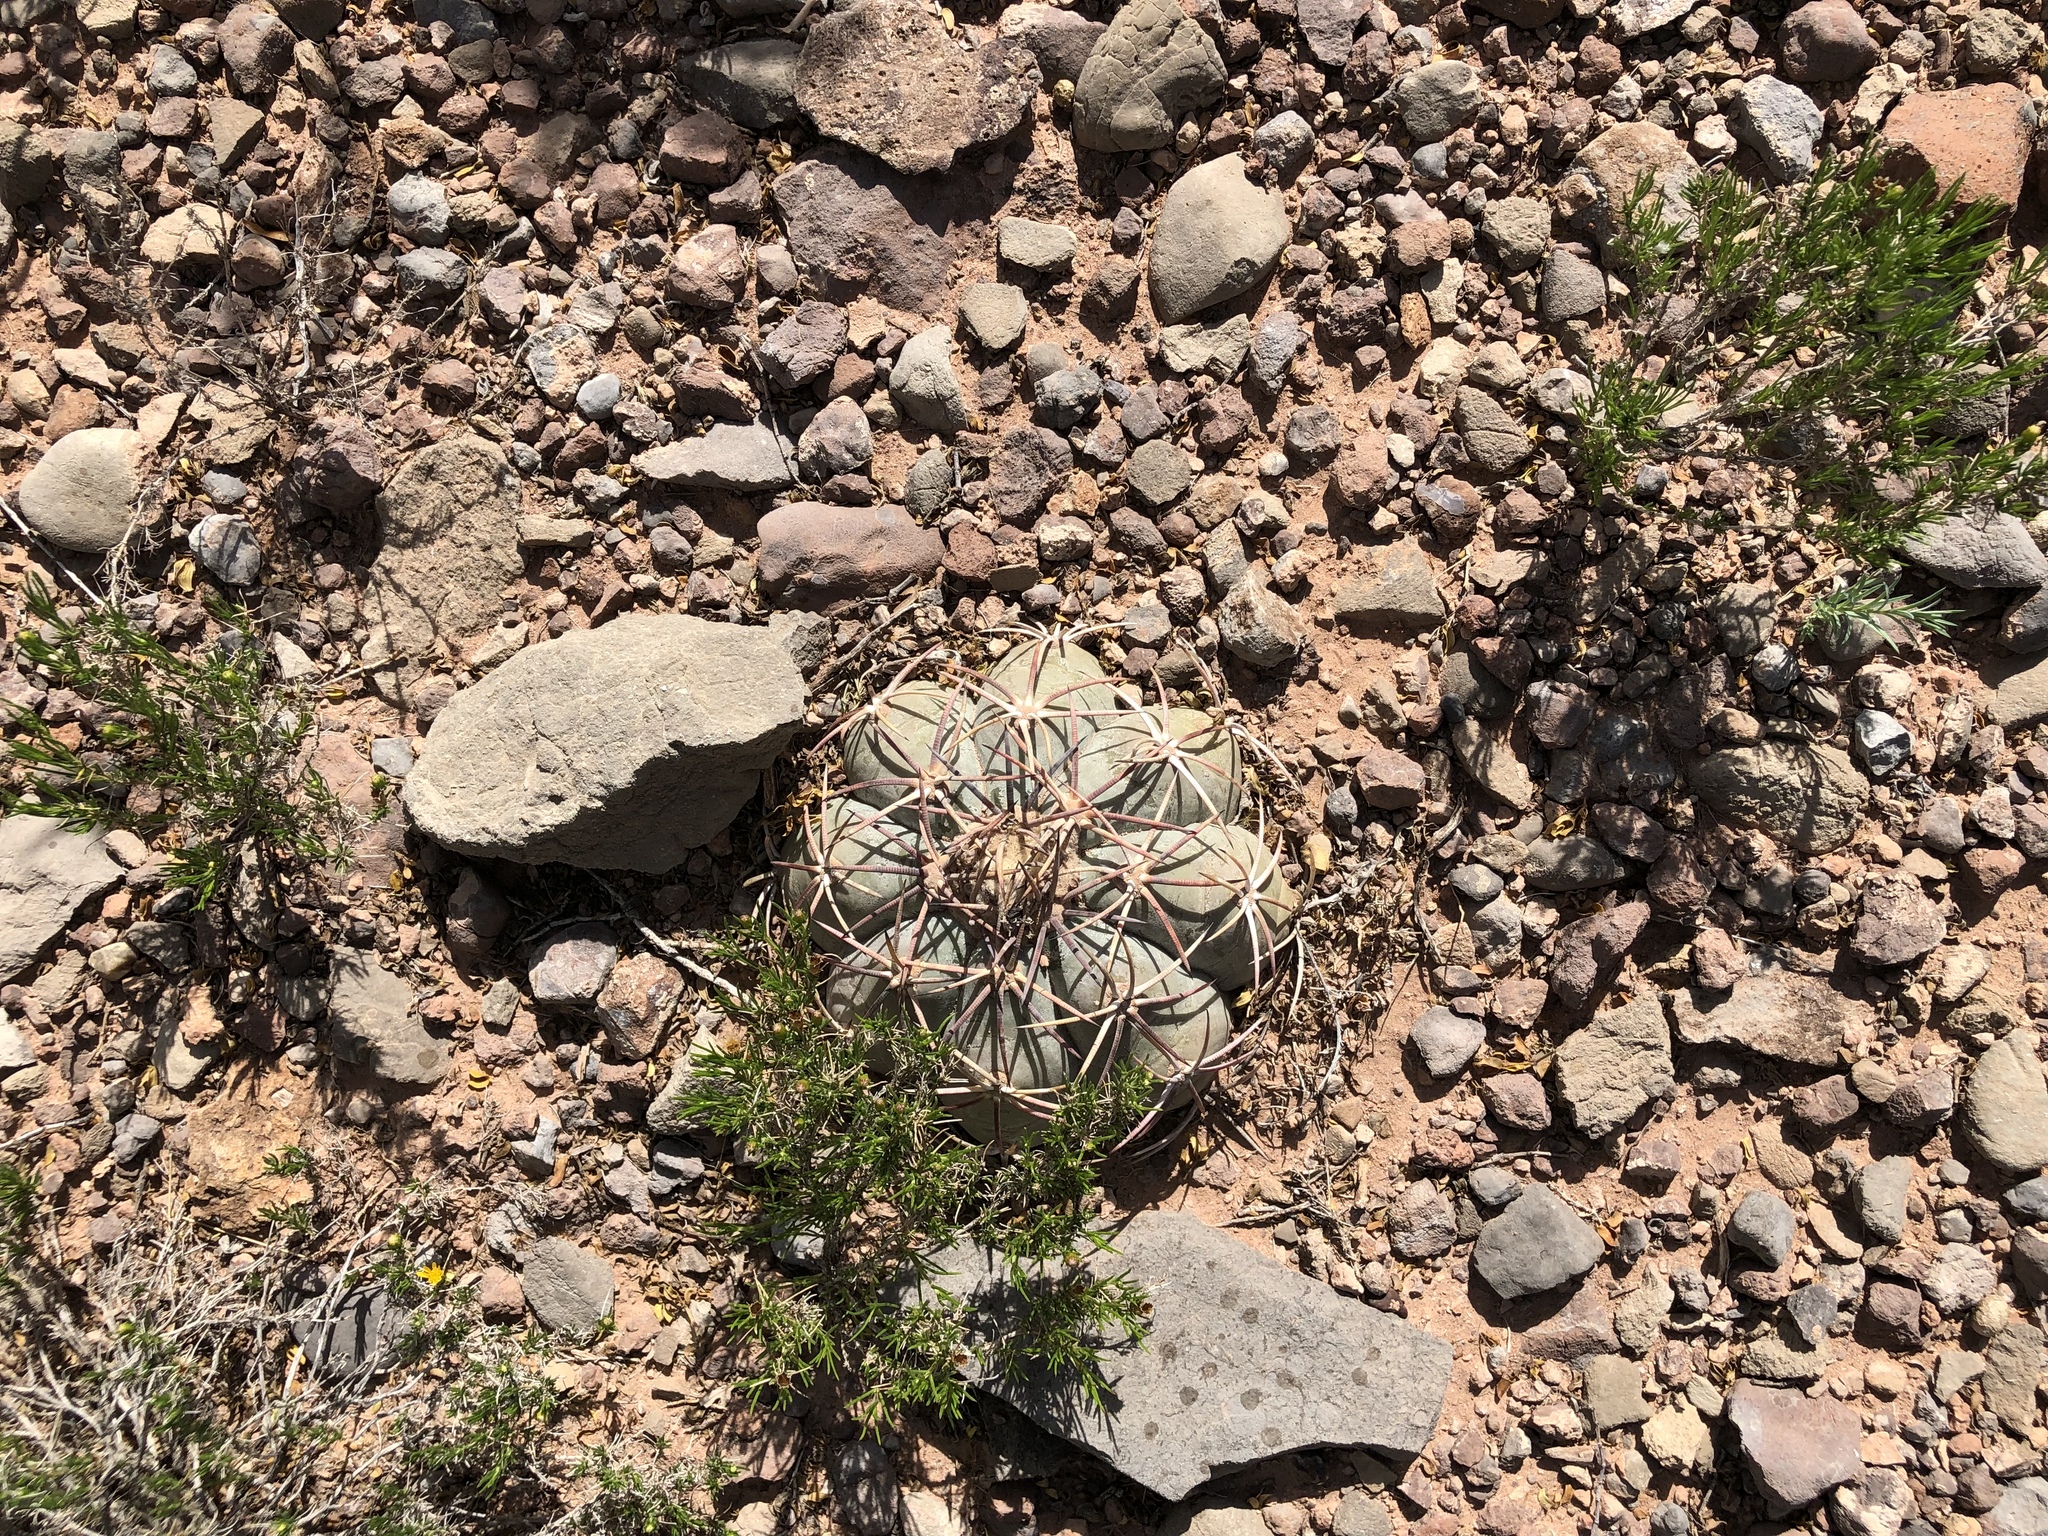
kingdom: Plantae
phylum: Tracheophyta
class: Magnoliopsida
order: Caryophyllales
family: Cactaceae
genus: Echinocactus
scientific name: Echinocactus horizonthalonius
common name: Devilshead
